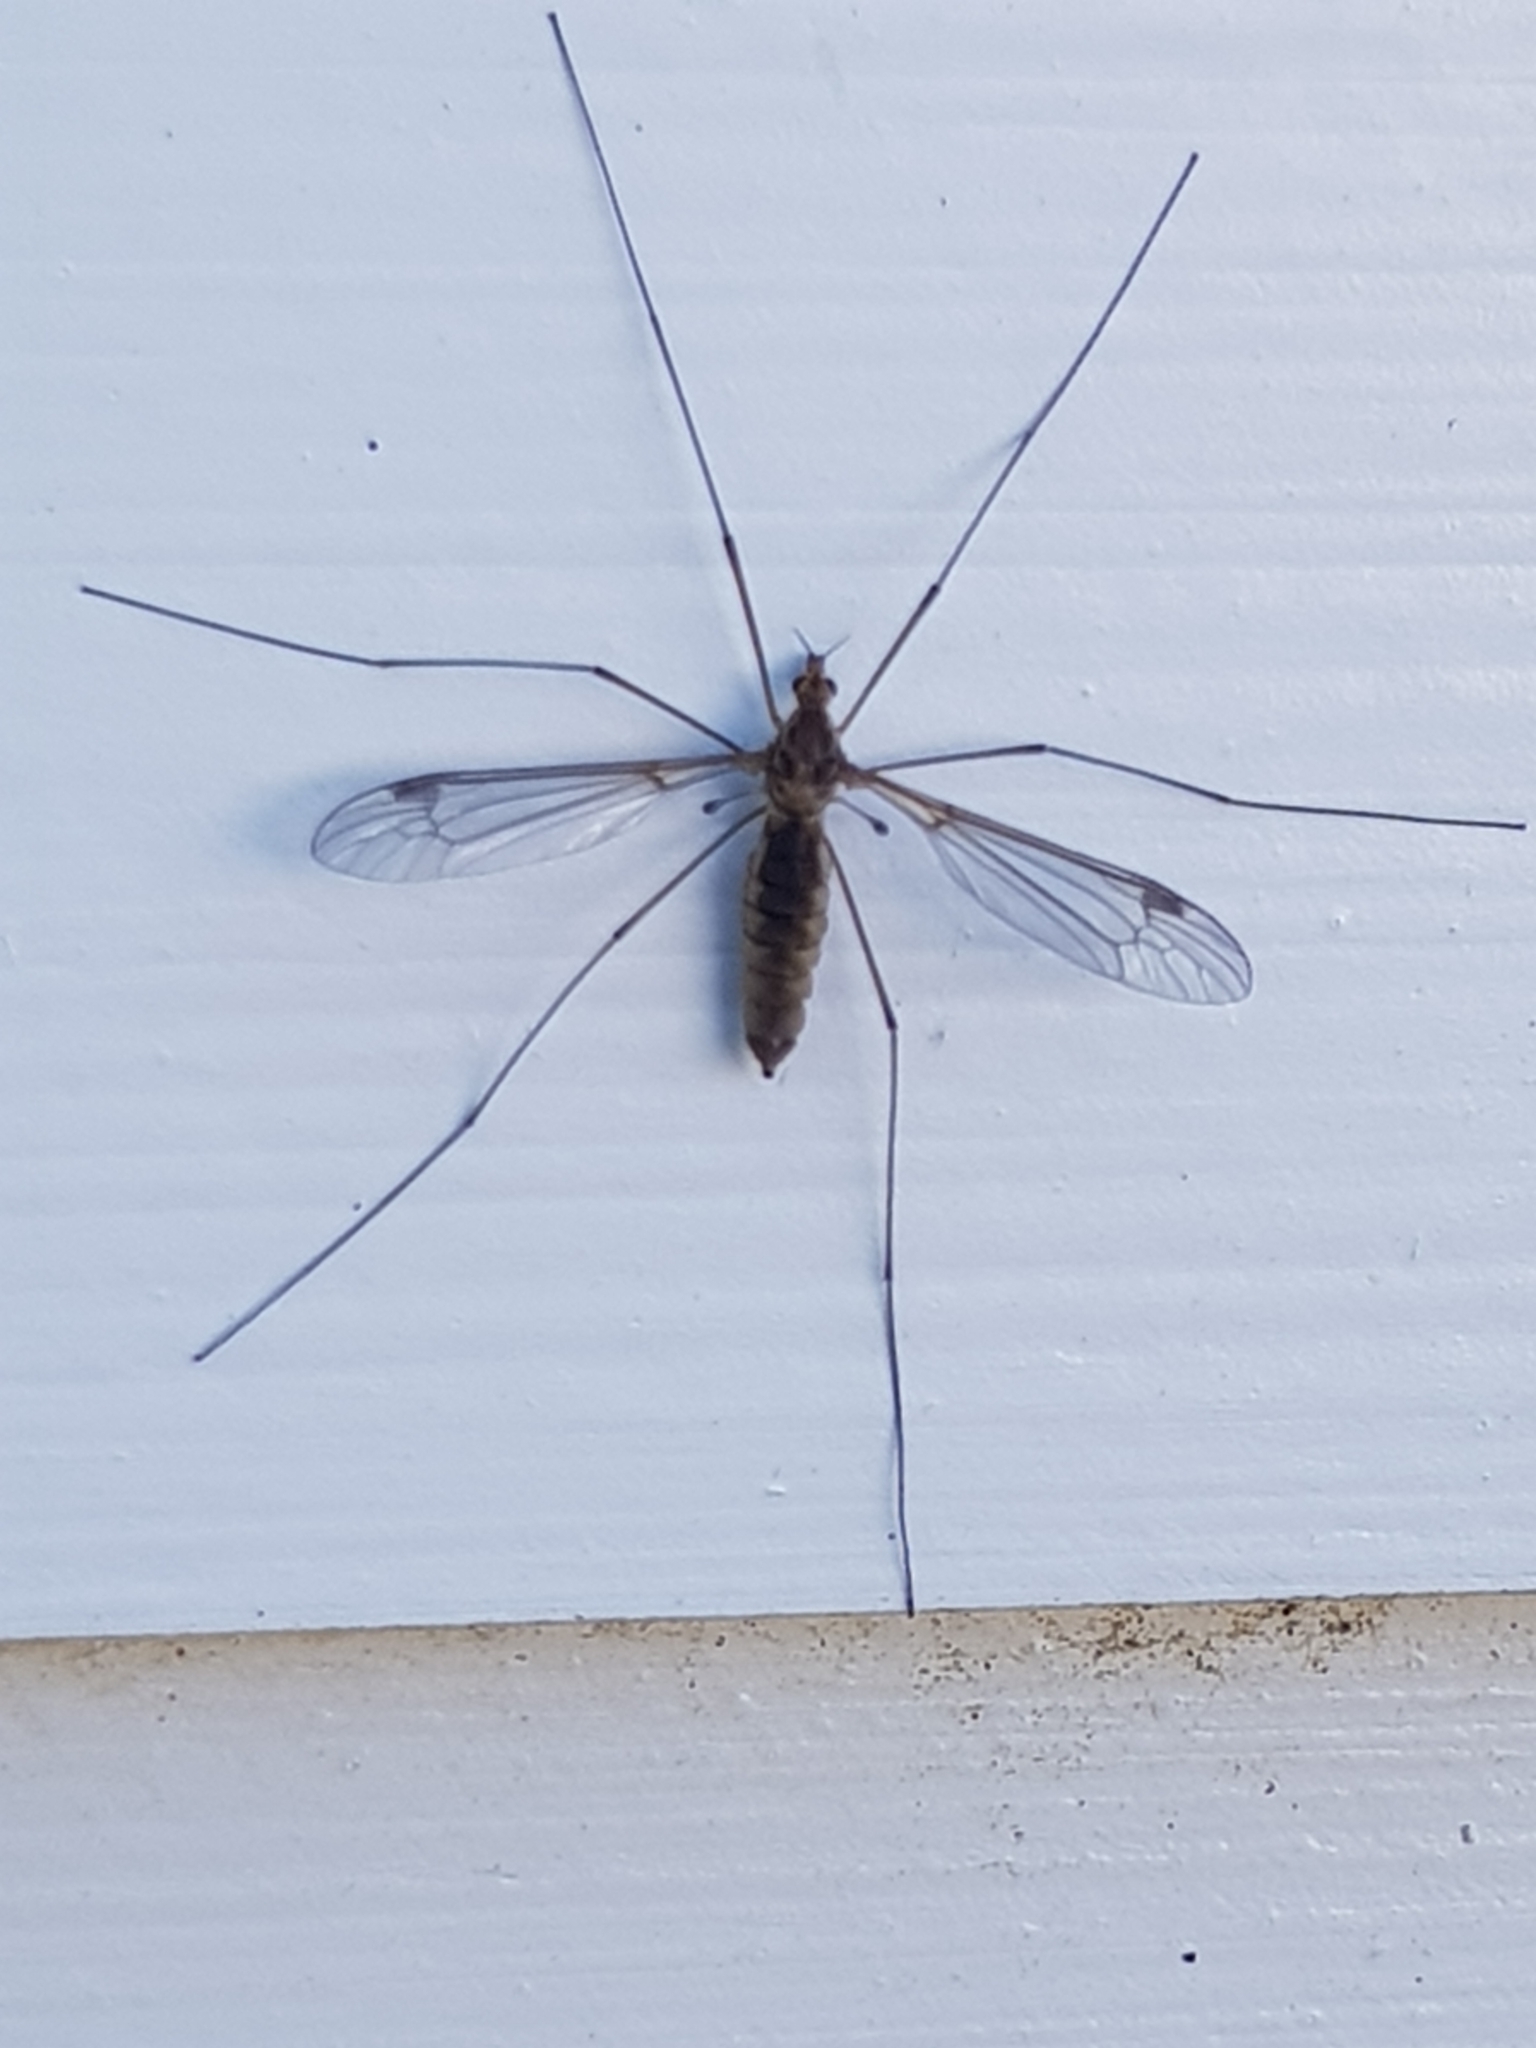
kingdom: Animalia
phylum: Arthropoda
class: Insecta
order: Diptera
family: Tipulidae
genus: Leptotarsus
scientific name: Leptotarsus zeylandiae
